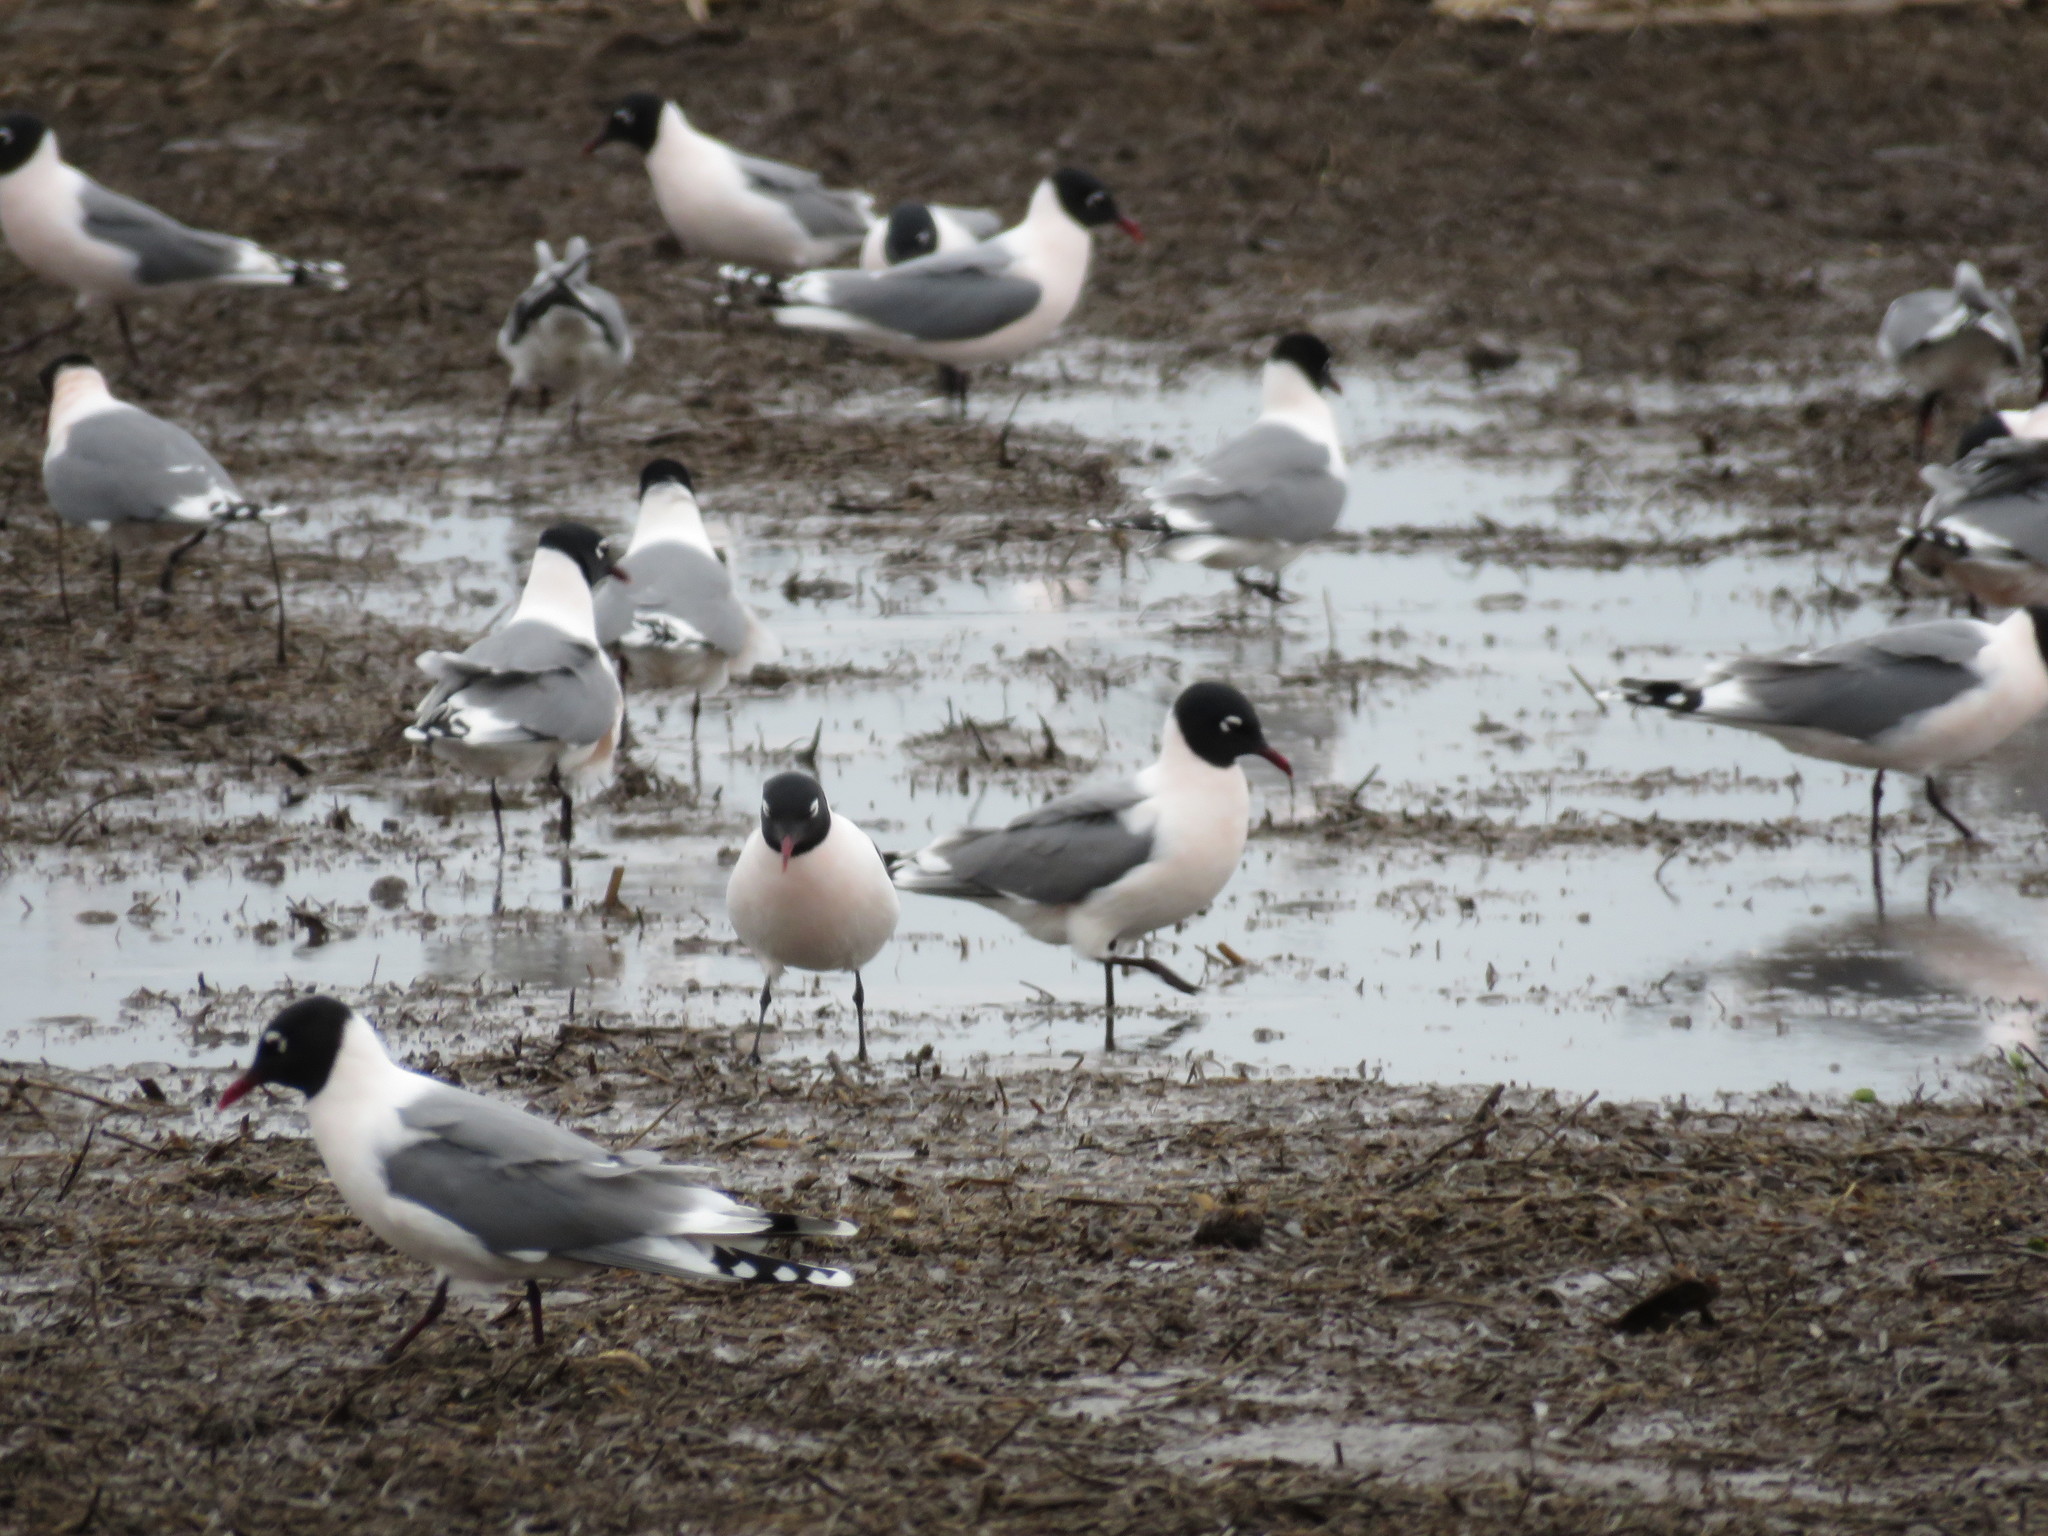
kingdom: Animalia
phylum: Chordata
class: Aves
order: Charadriiformes
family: Laridae
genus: Leucophaeus
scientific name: Leucophaeus pipixcan
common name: Franklin's gull
